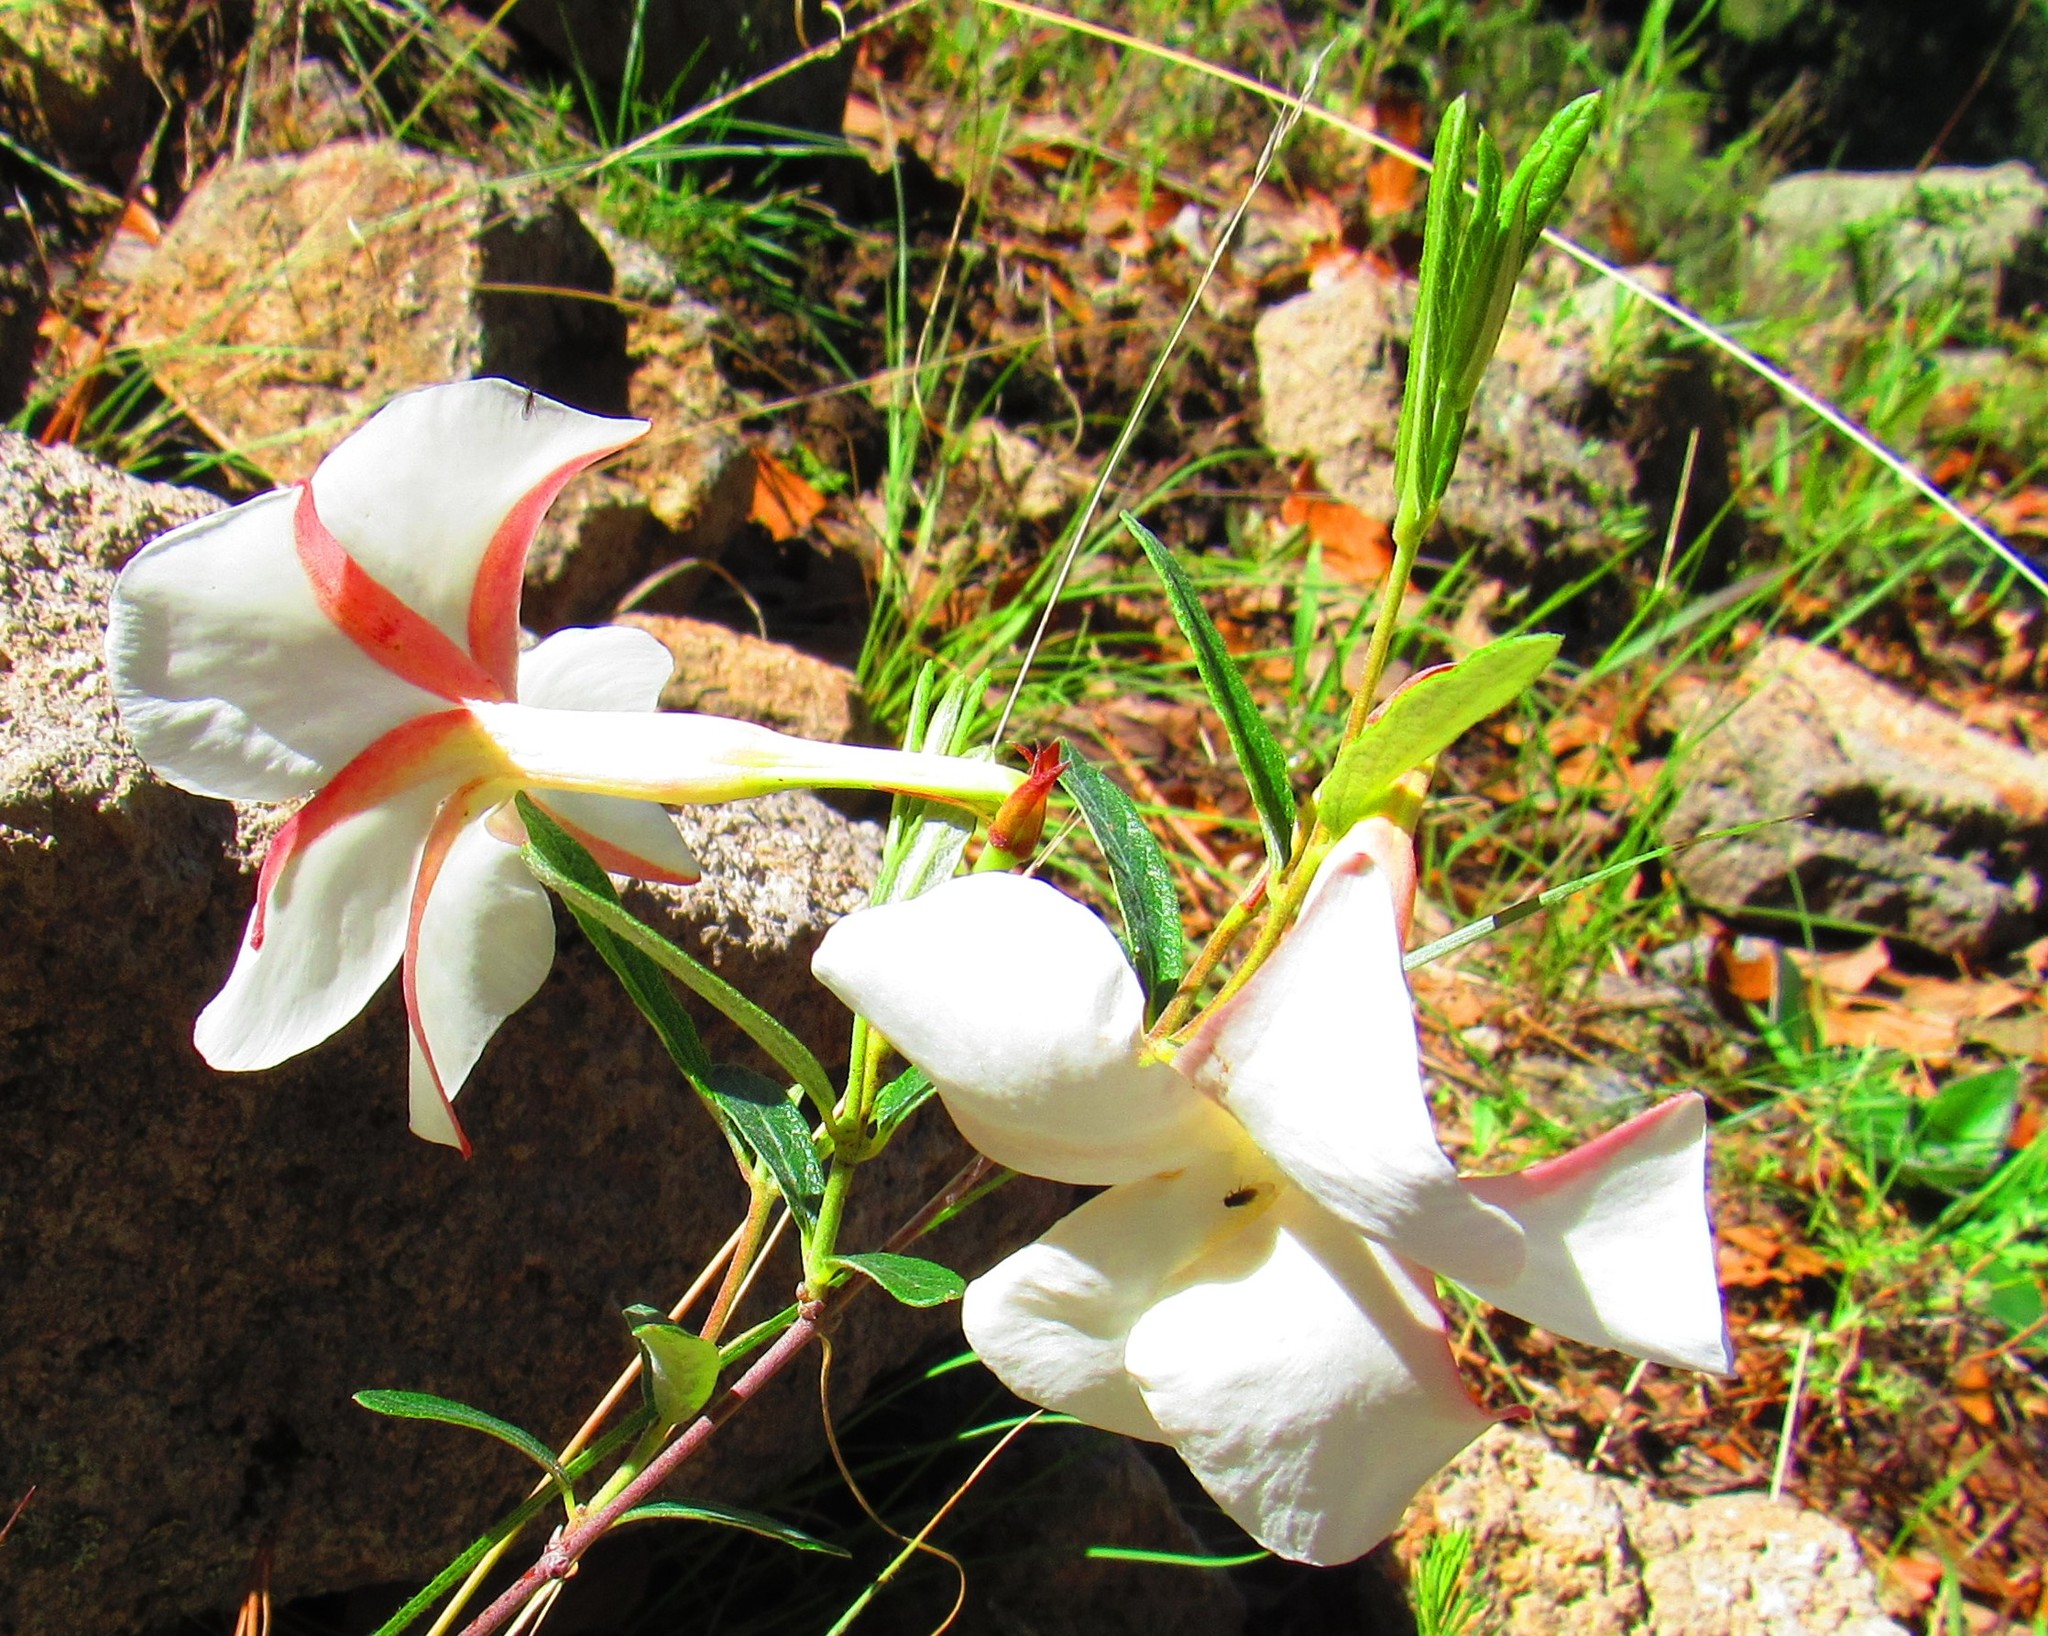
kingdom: Plantae
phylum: Tracheophyta
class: Magnoliopsida
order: Gentianales
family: Apocynaceae
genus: Mandevilla
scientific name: Mandevilla hypoleuca
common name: Davis mountain rocktrumpet
